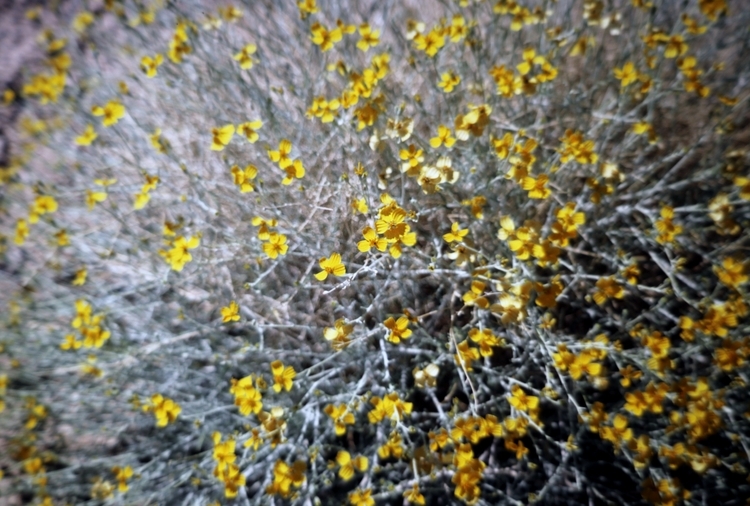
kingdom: Plantae
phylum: Tracheophyta
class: Magnoliopsida
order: Asterales
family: Asteraceae
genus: Encelia
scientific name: Encelia farinosa
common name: Brittlebush
